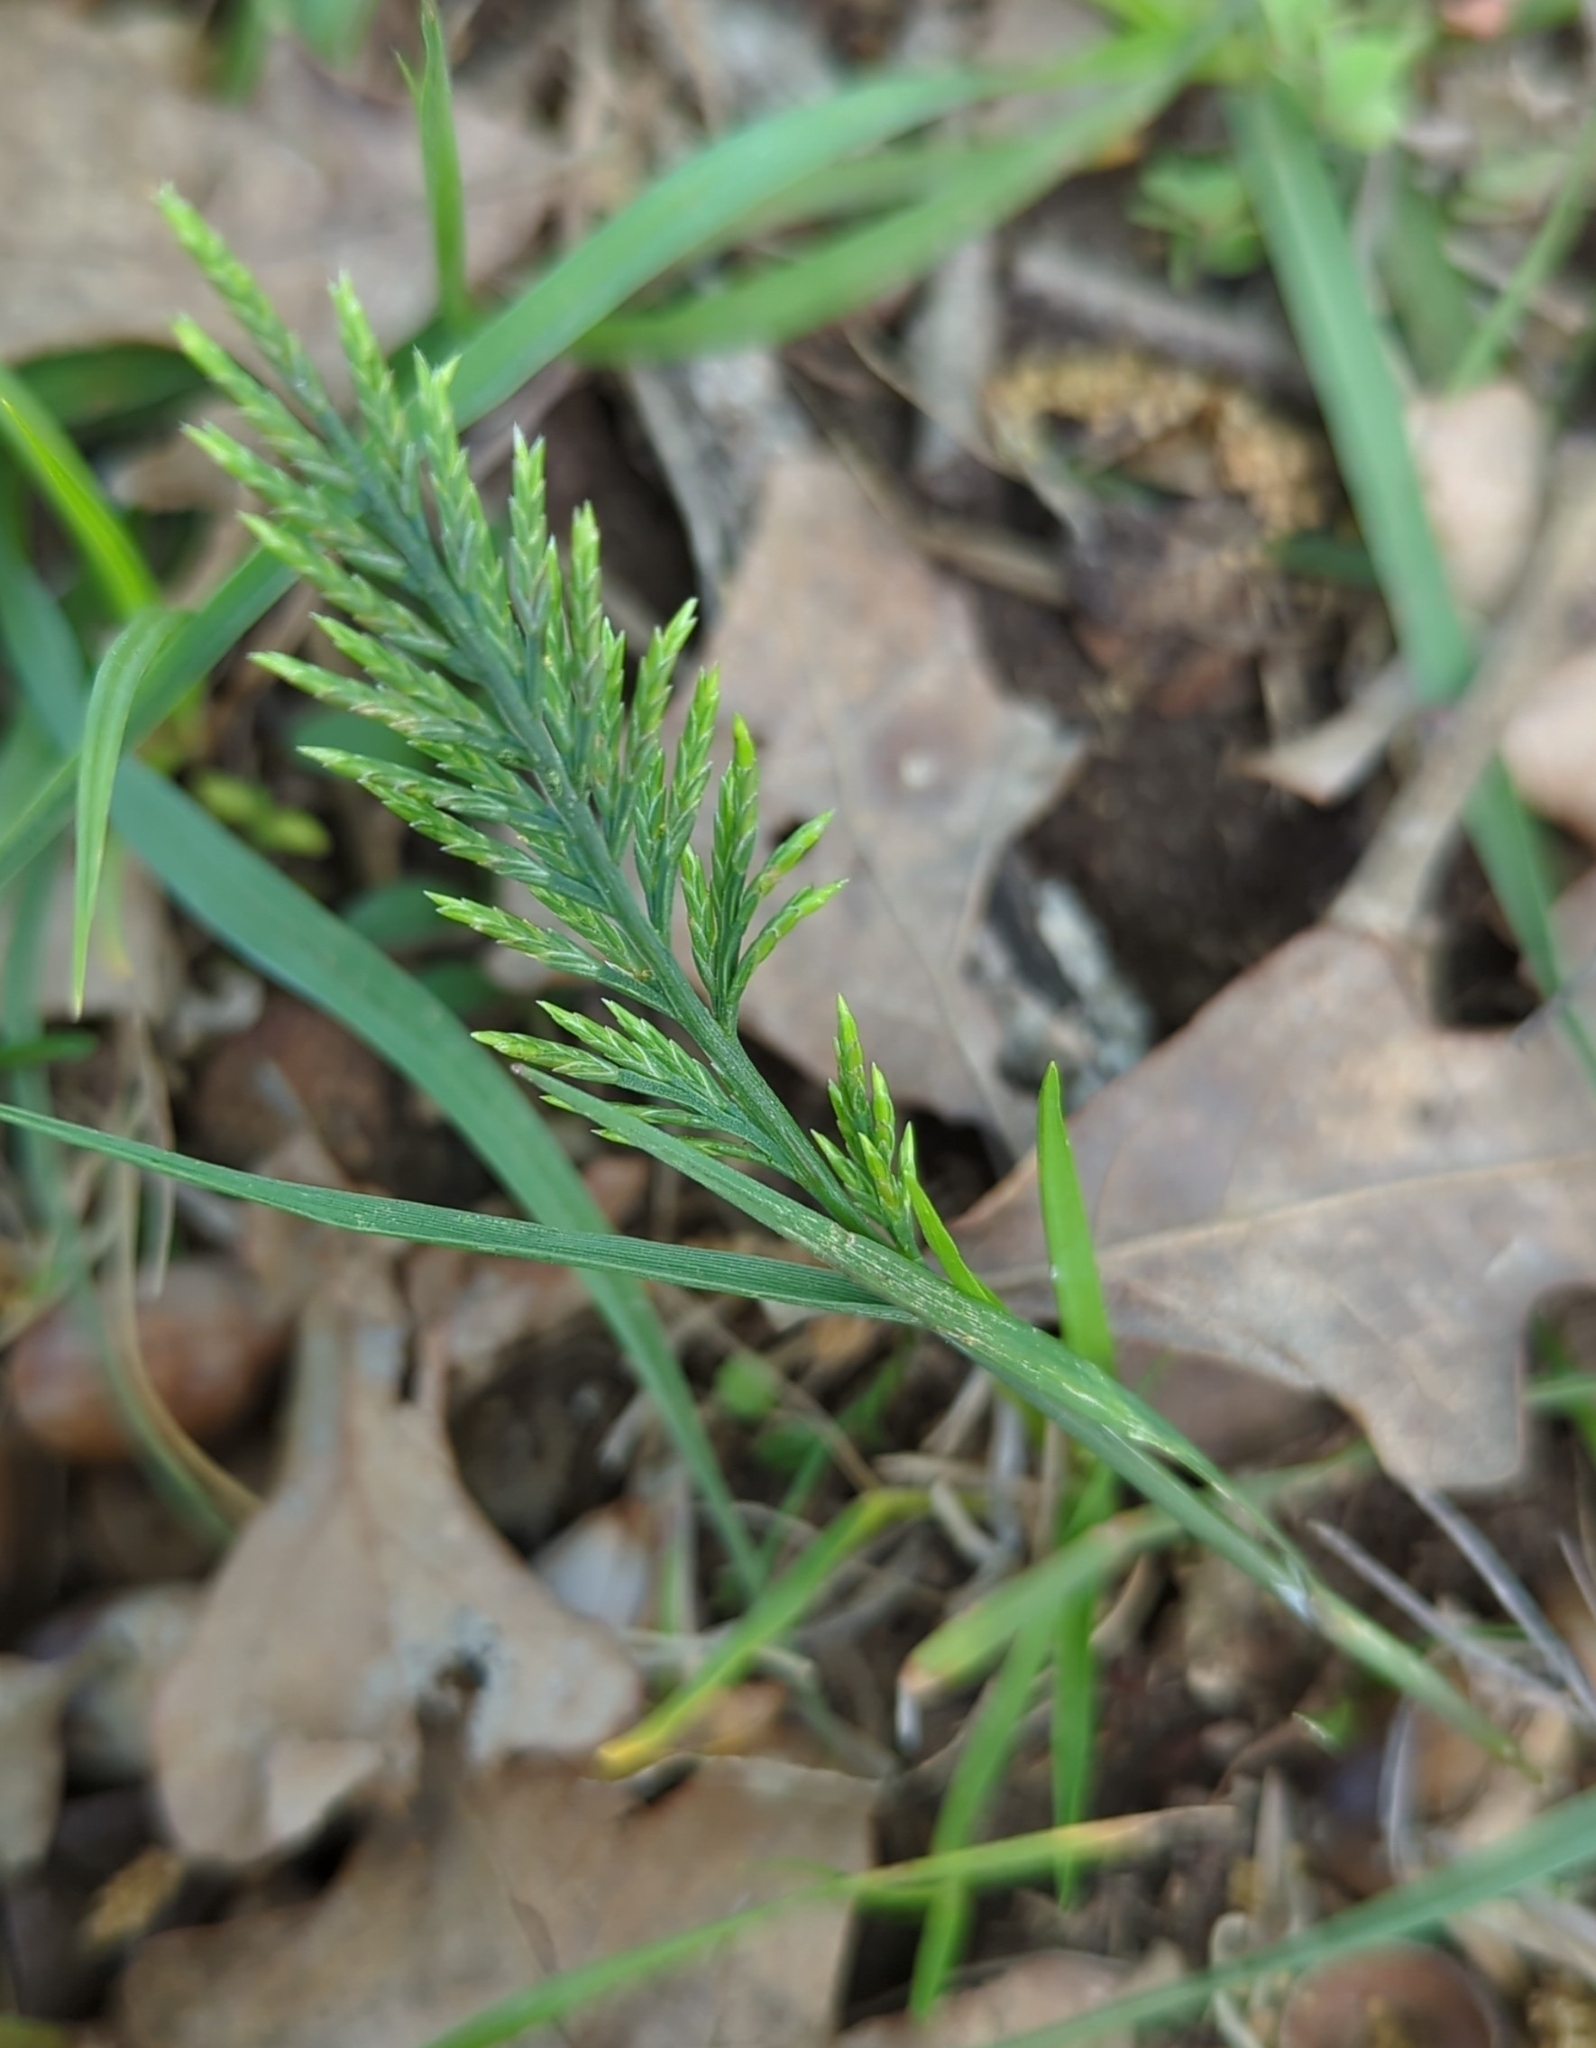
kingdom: Plantae
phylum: Tracheophyta
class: Liliopsida
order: Poales
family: Poaceae
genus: Catapodium
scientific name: Catapodium rigidum
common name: Fern-grass
